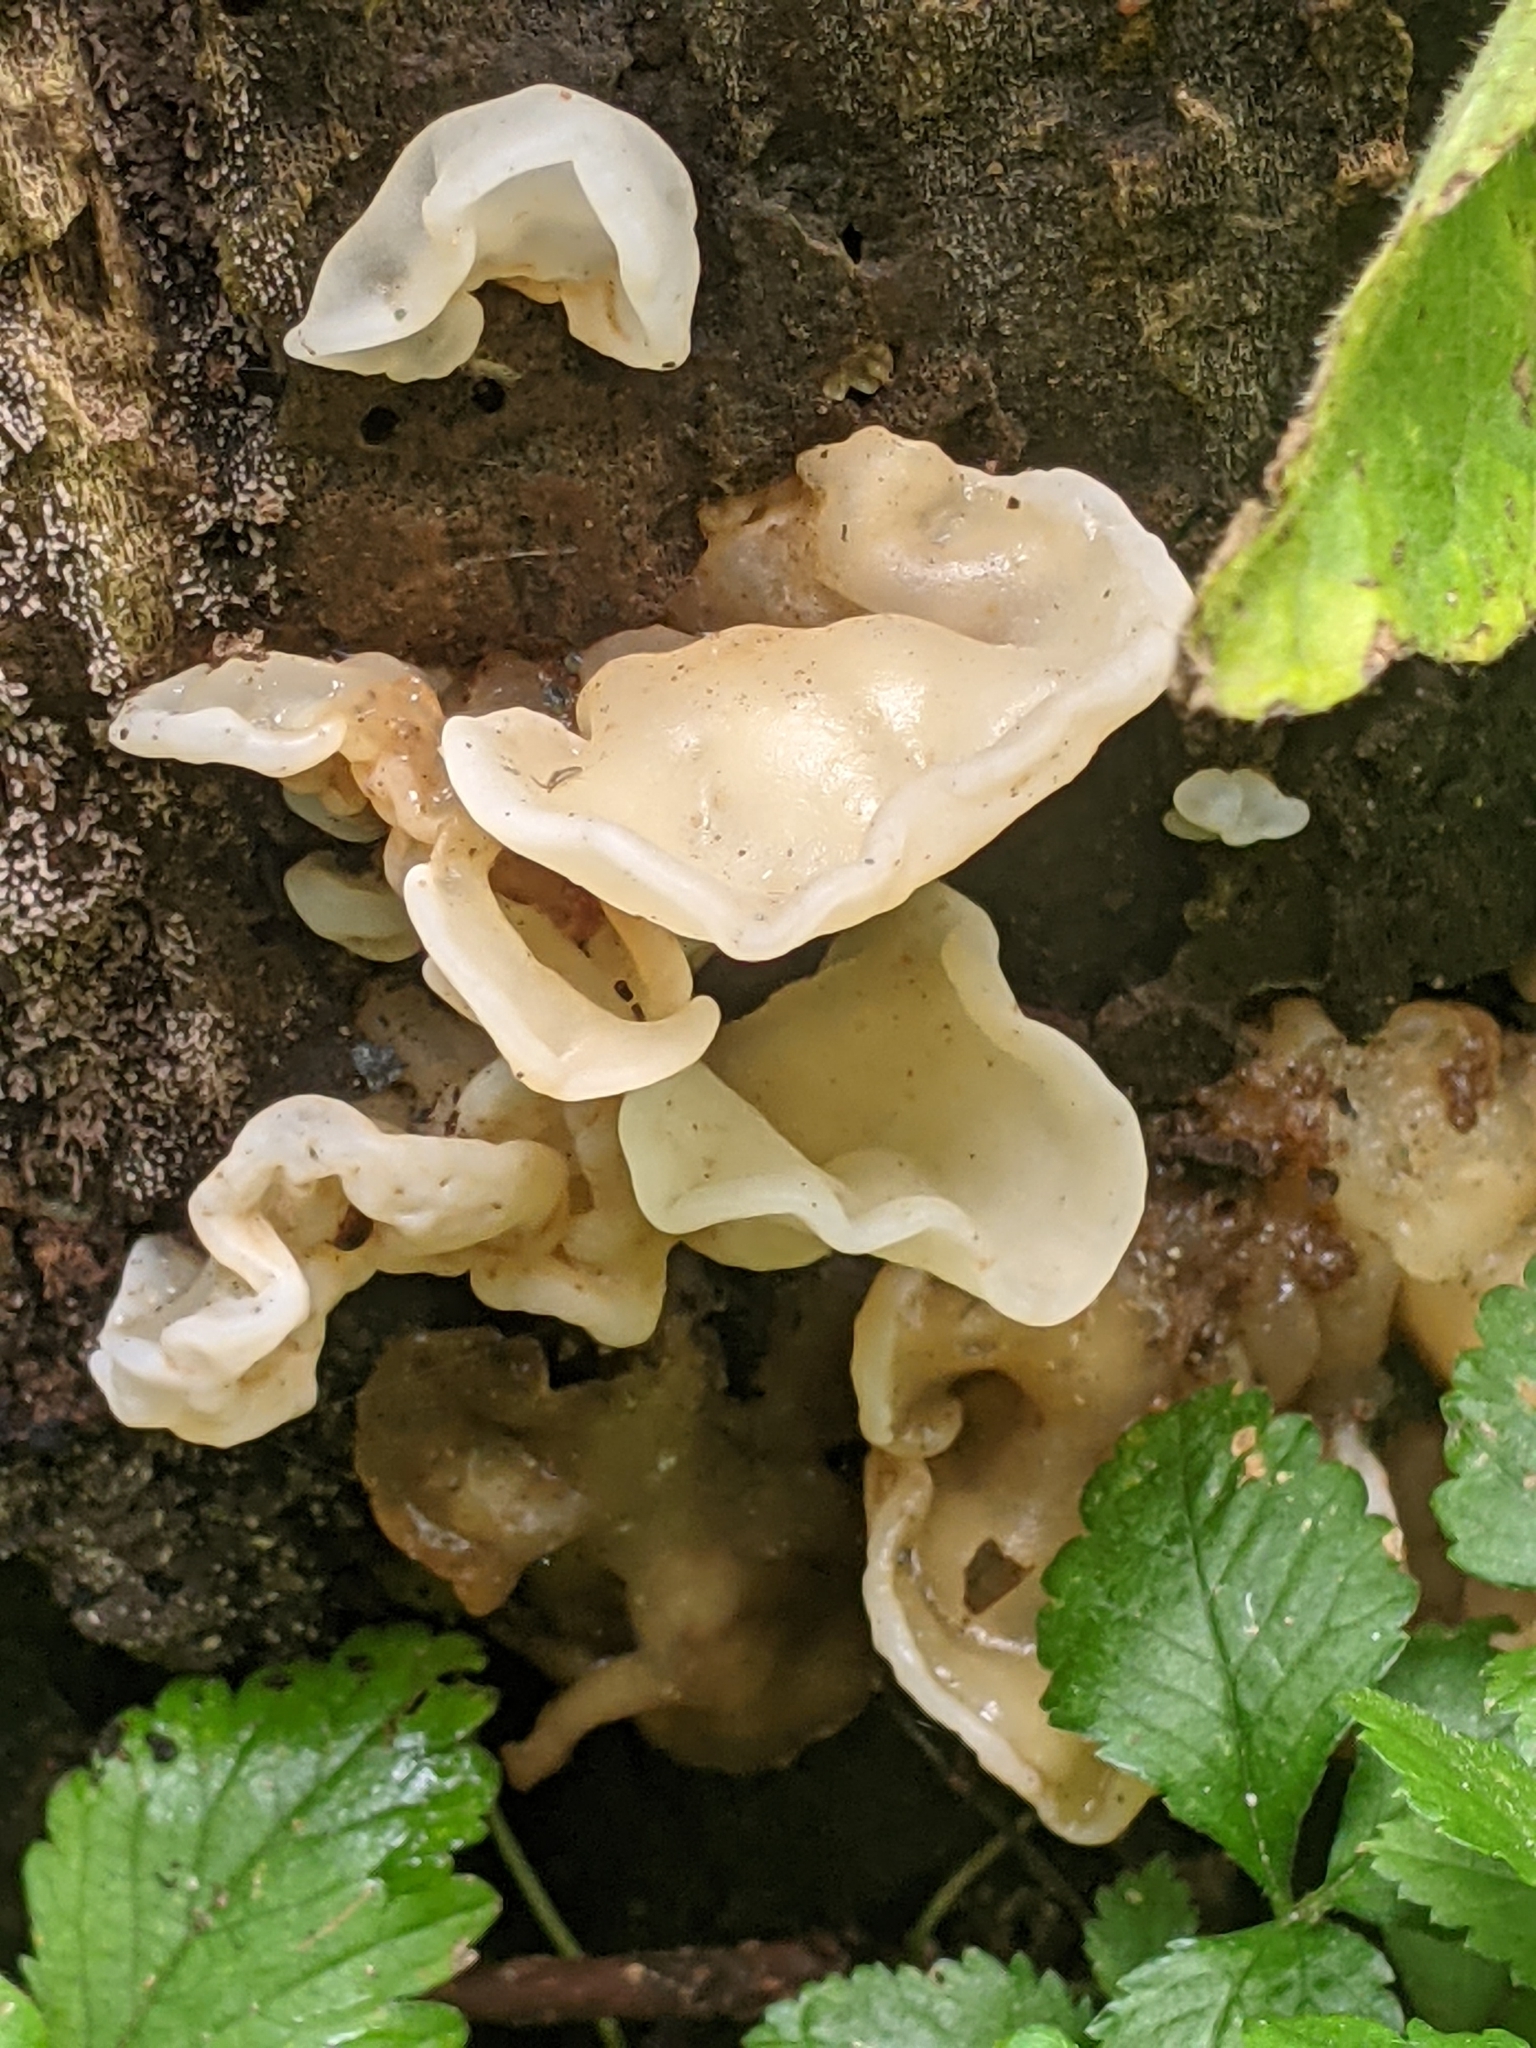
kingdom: Fungi
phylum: Basidiomycota
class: Agaricomycetes
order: Auriculariales
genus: Ductifera
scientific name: Ductifera pululahuana
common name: White jelly fungus
